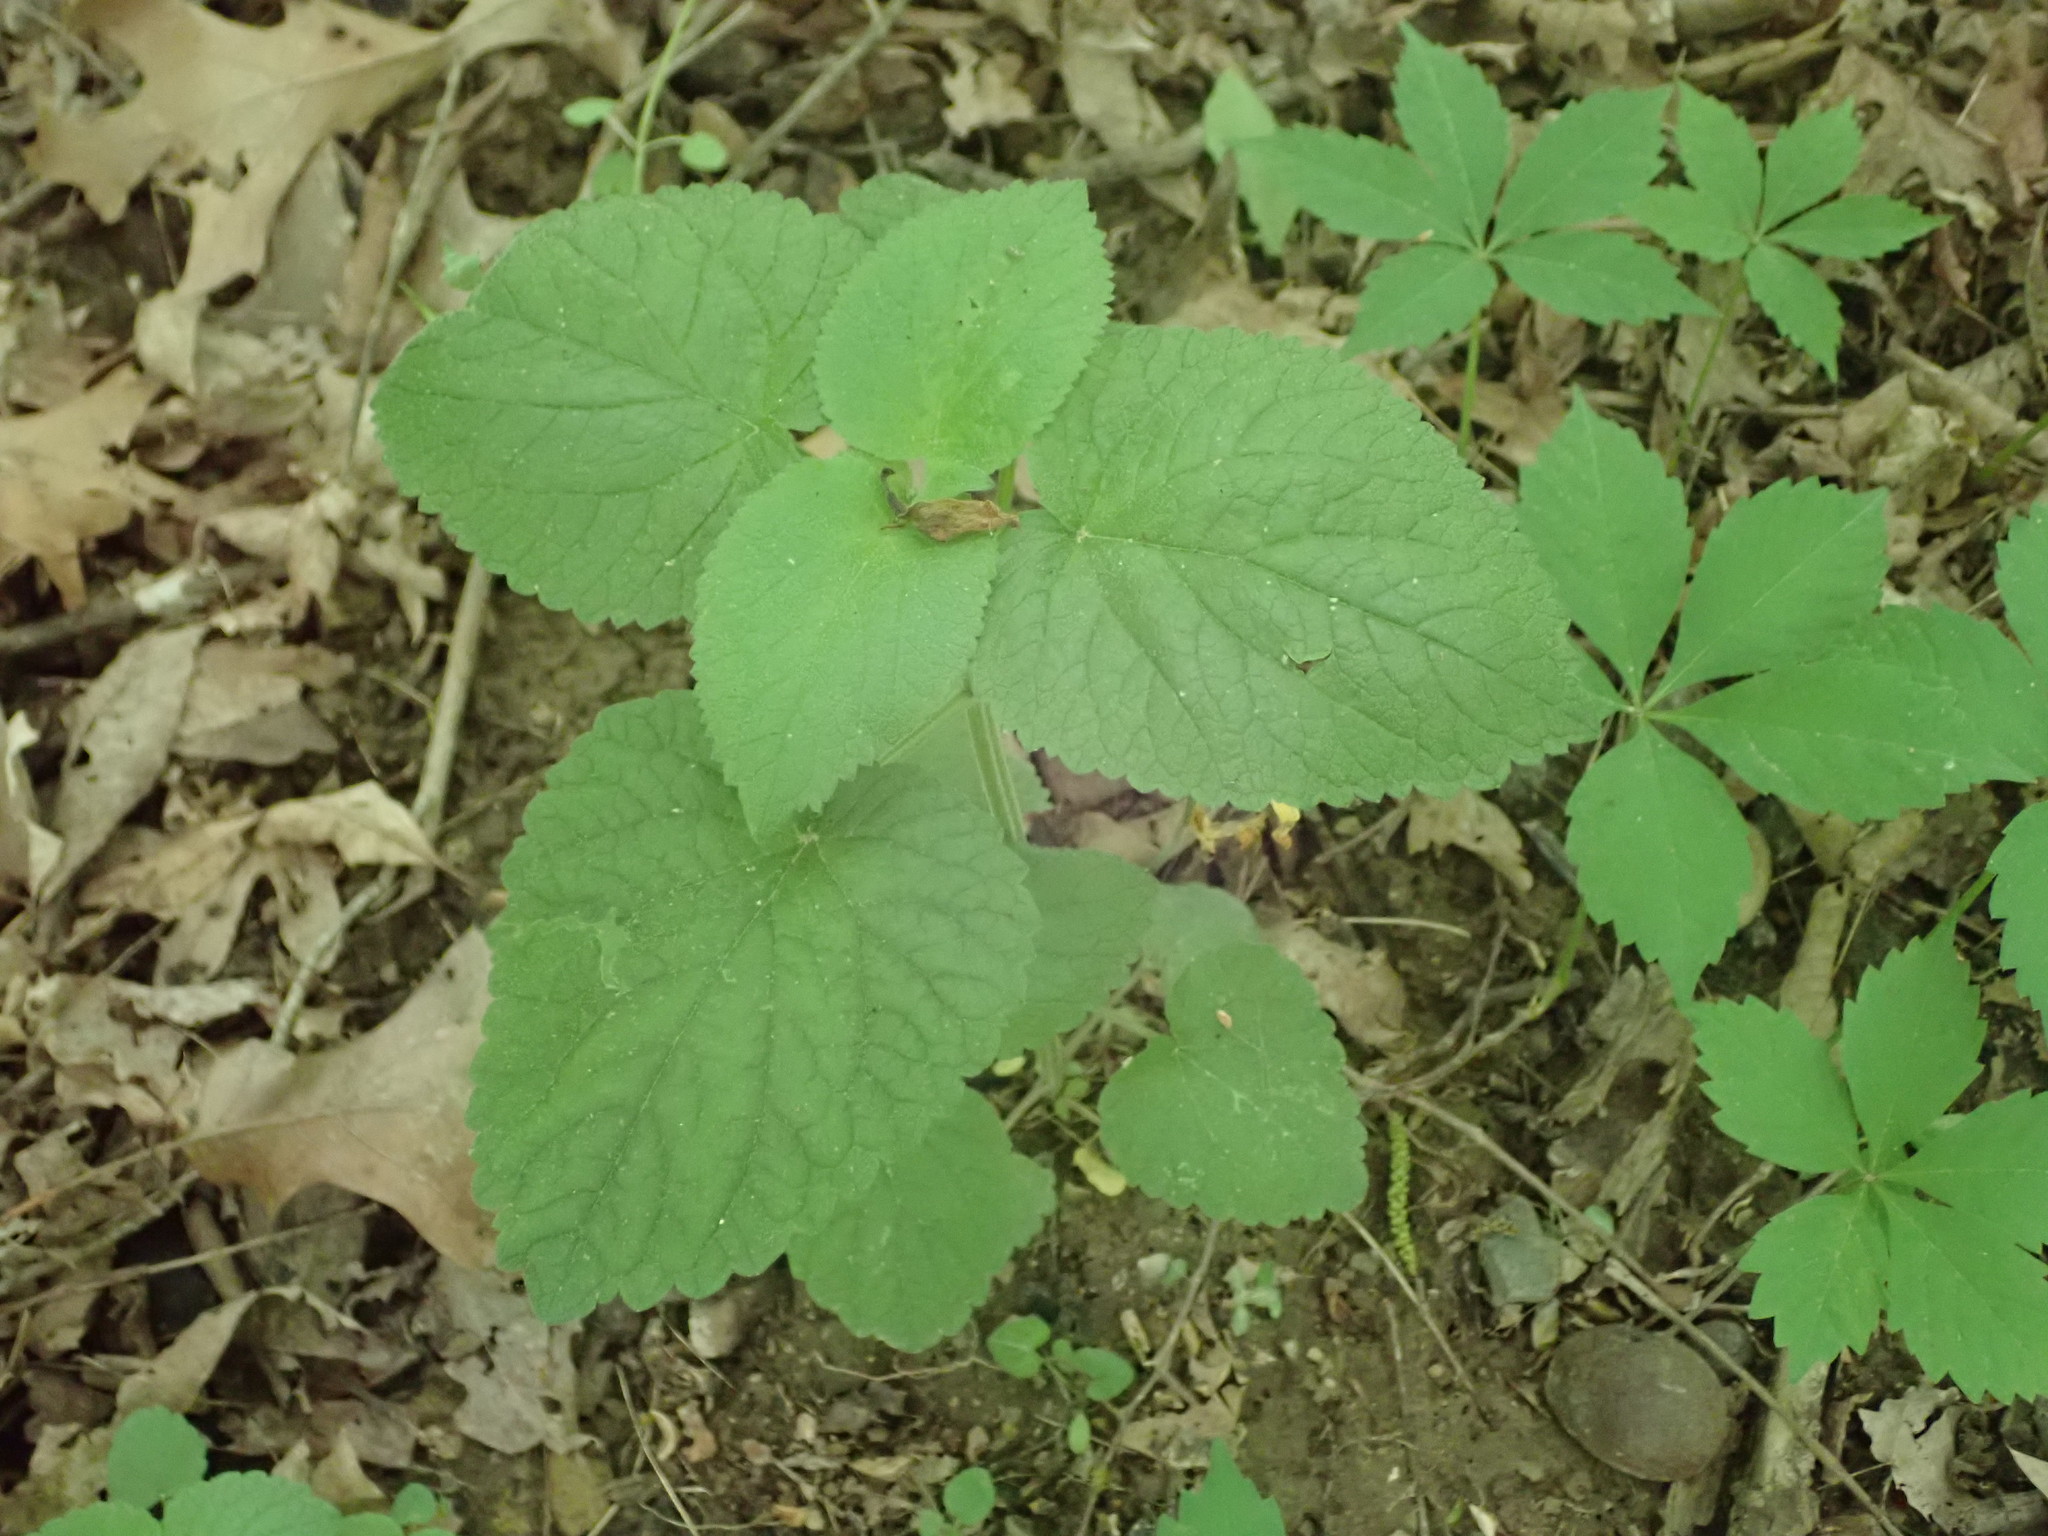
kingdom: Plantae
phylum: Tracheophyta
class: Magnoliopsida
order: Lamiales
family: Lamiaceae
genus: Scutellaria
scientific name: Scutellaria ovata
